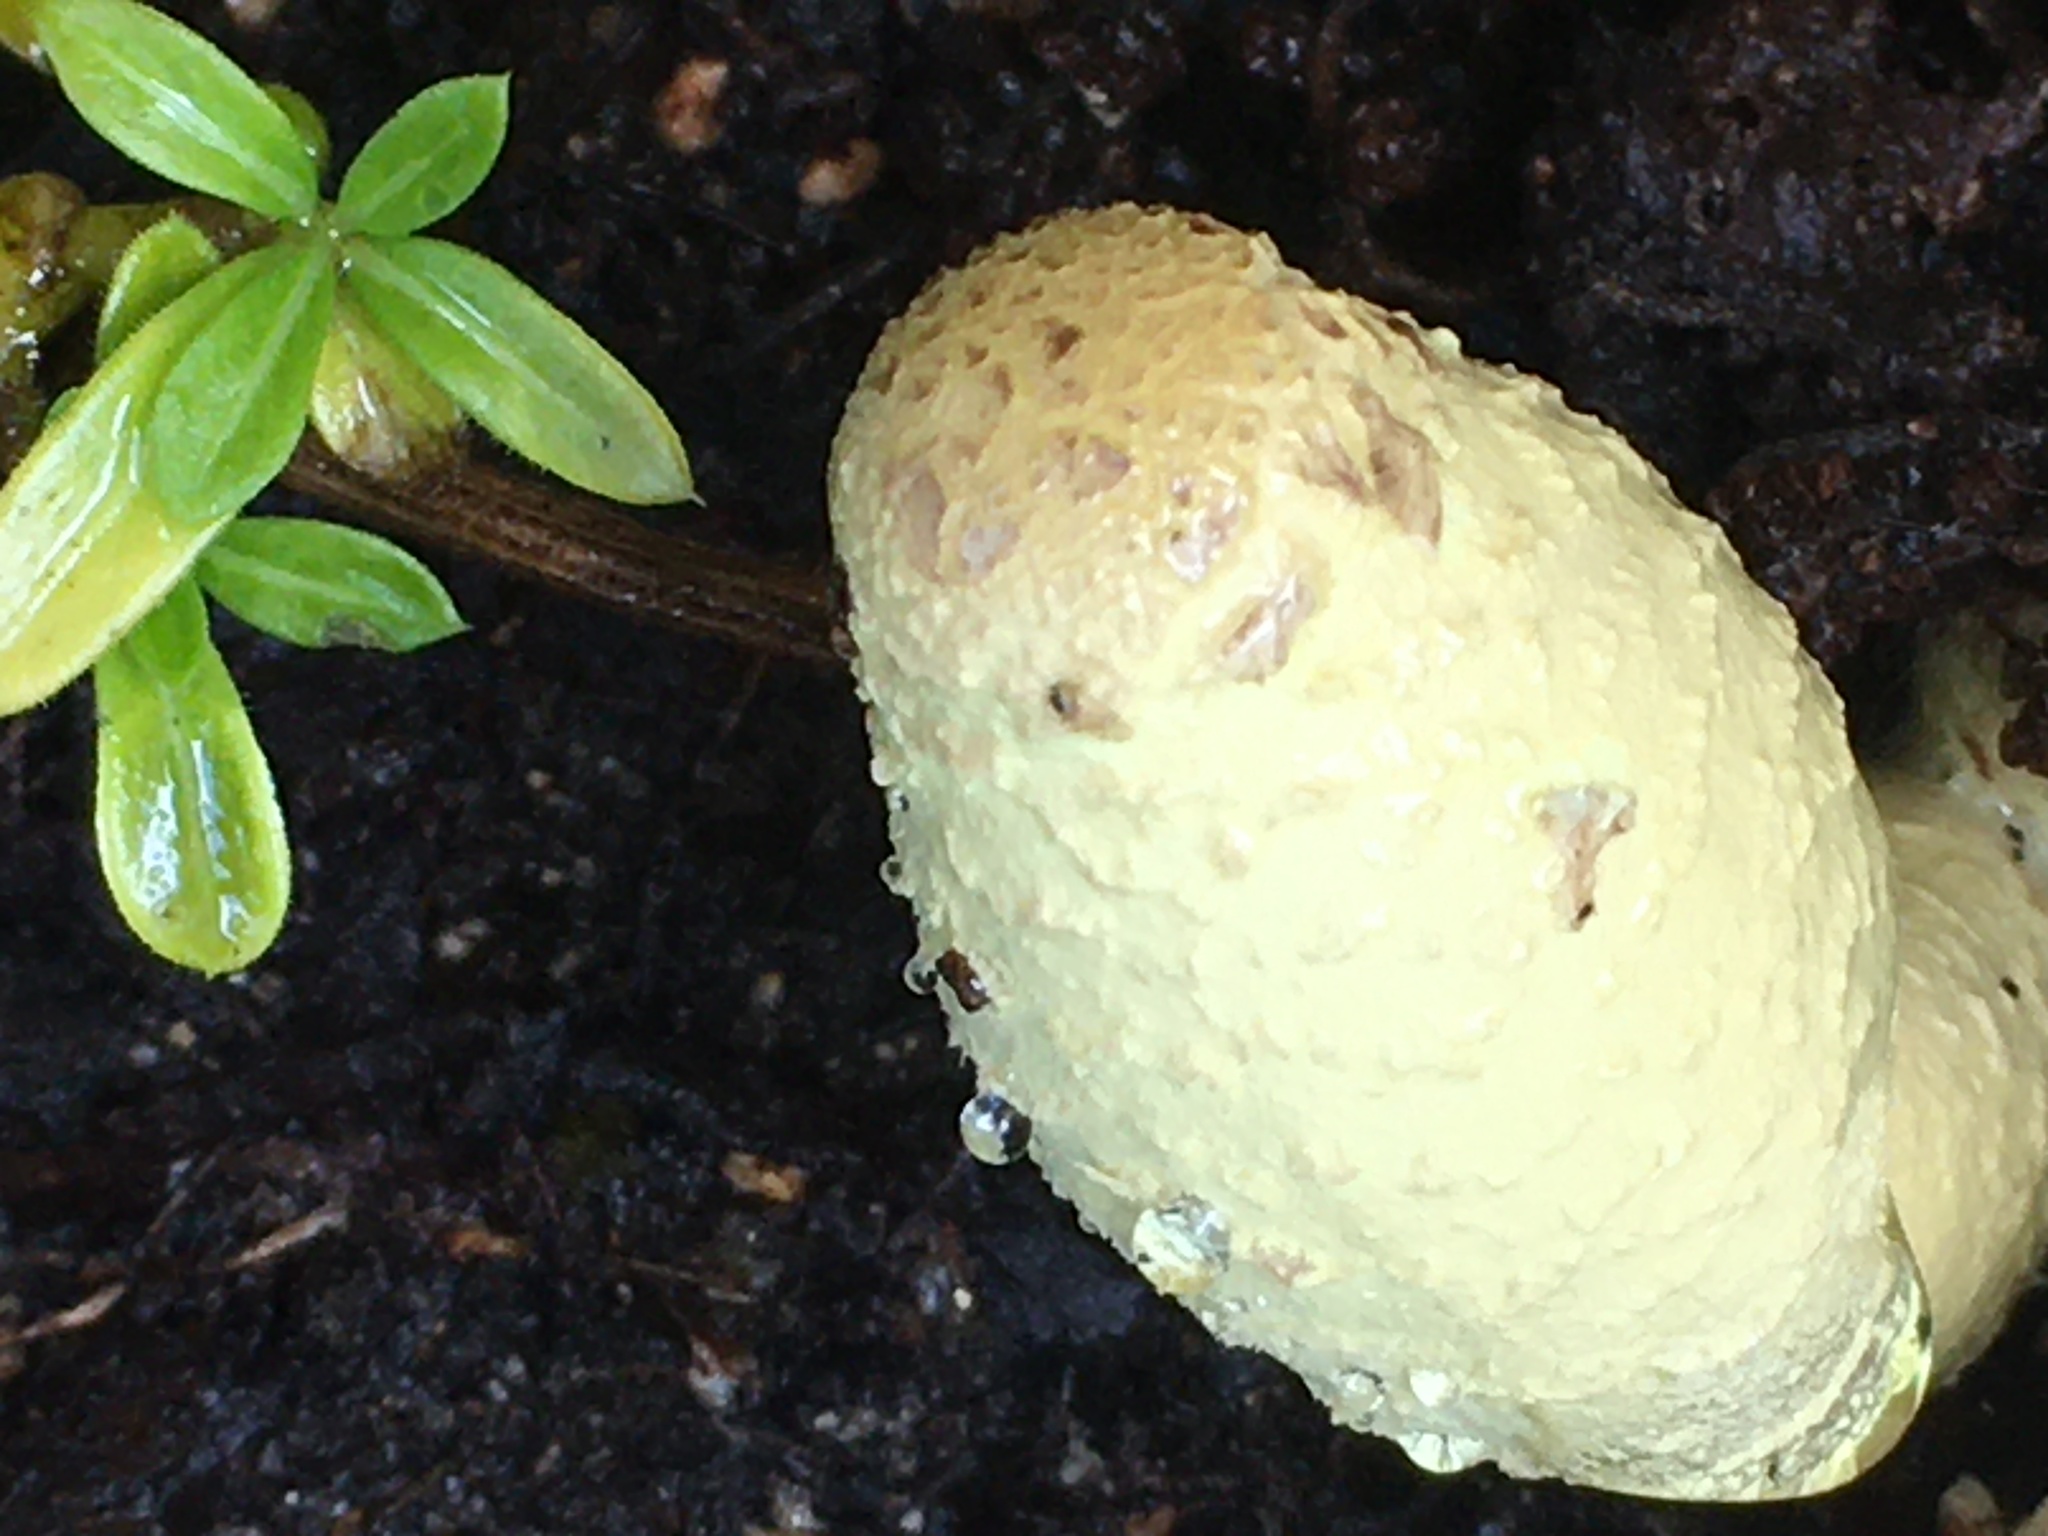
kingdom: Fungi
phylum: Basidiomycota
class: Agaricomycetes
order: Agaricales
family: Agaricaceae
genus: Leucocoprinus
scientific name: Leucocoprinus birnbaumii
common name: Plantpot dapperling
